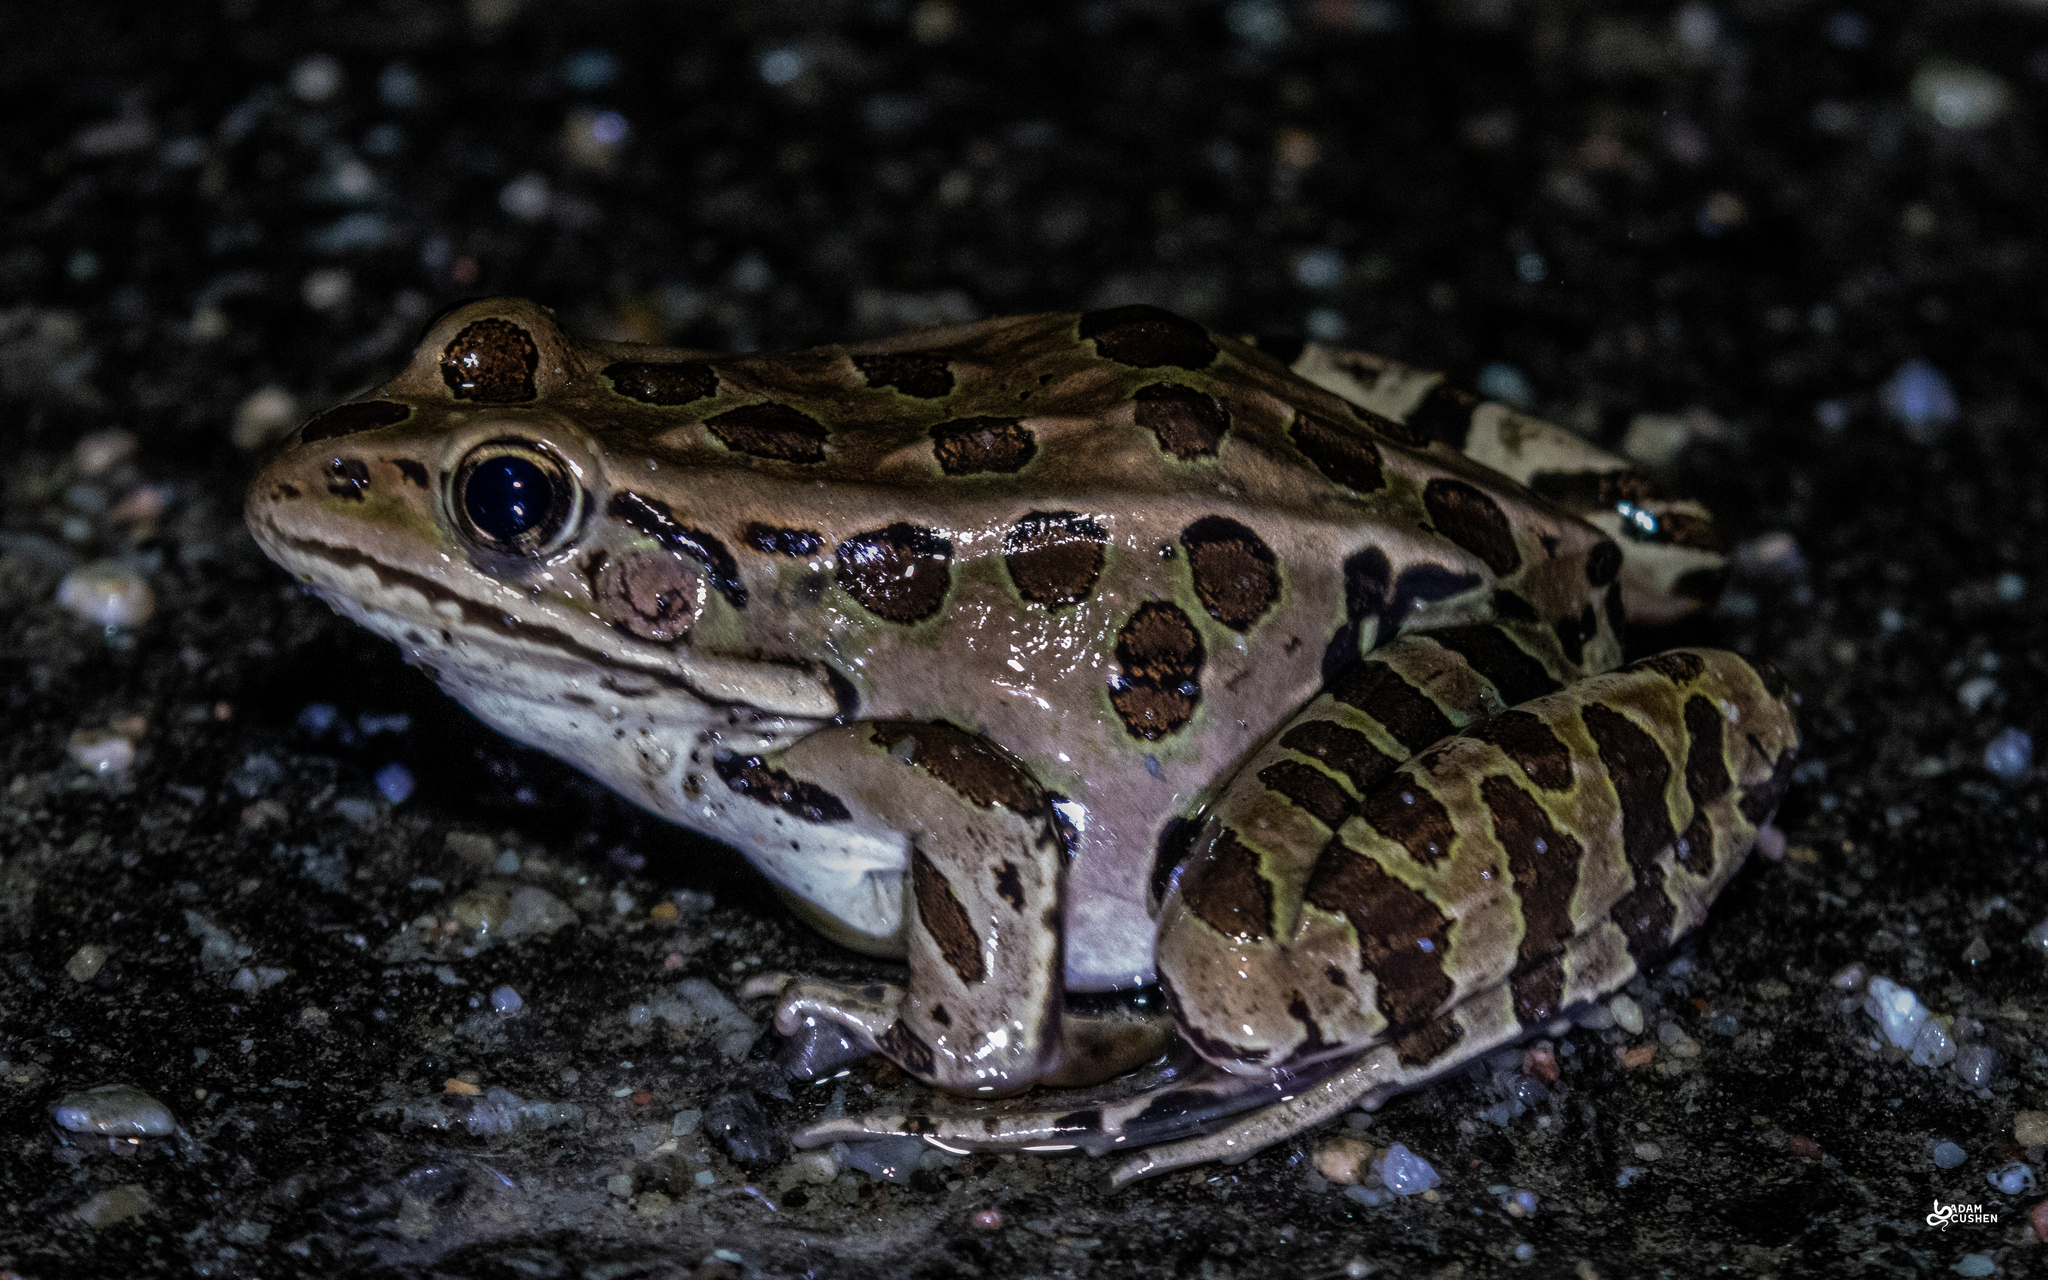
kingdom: Animalia
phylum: Chordata
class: Amphibia
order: Anura
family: Ranidae
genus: Lithobates
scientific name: Lithobates pipiens
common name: Northern leopard frog
